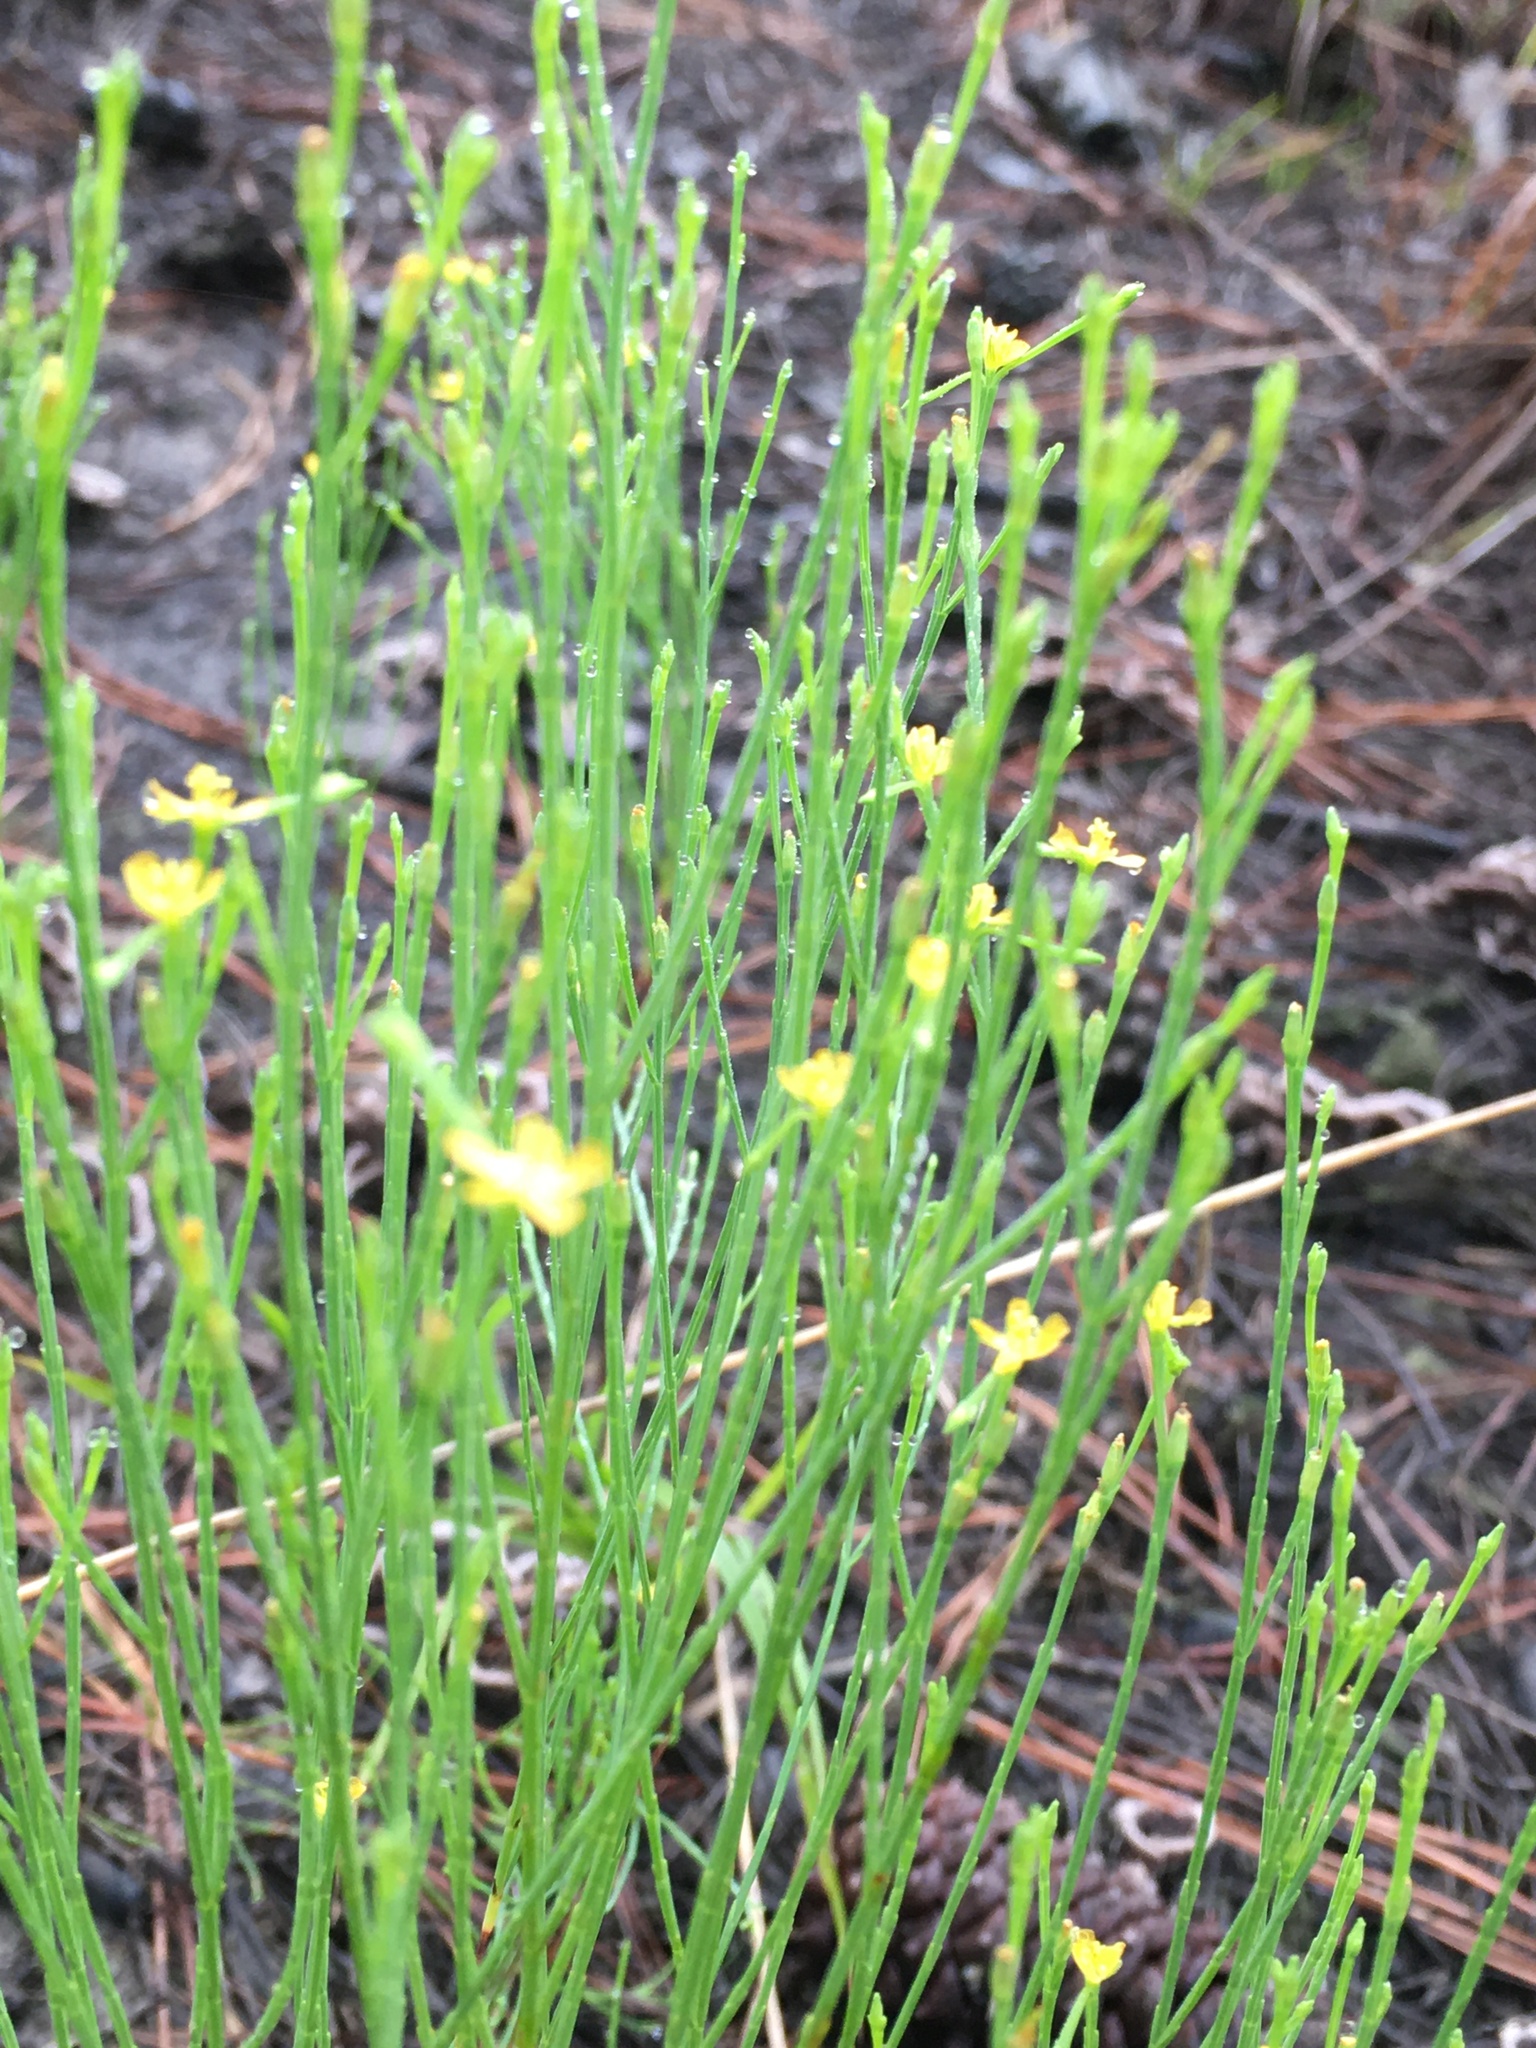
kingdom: Plantae
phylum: Tracheophyta
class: Magnoliopsida
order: Malpighiales
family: Hypericaceae
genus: Hypericum
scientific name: Hypericum gentianoides
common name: Gentian-leaved st. john's-wort
